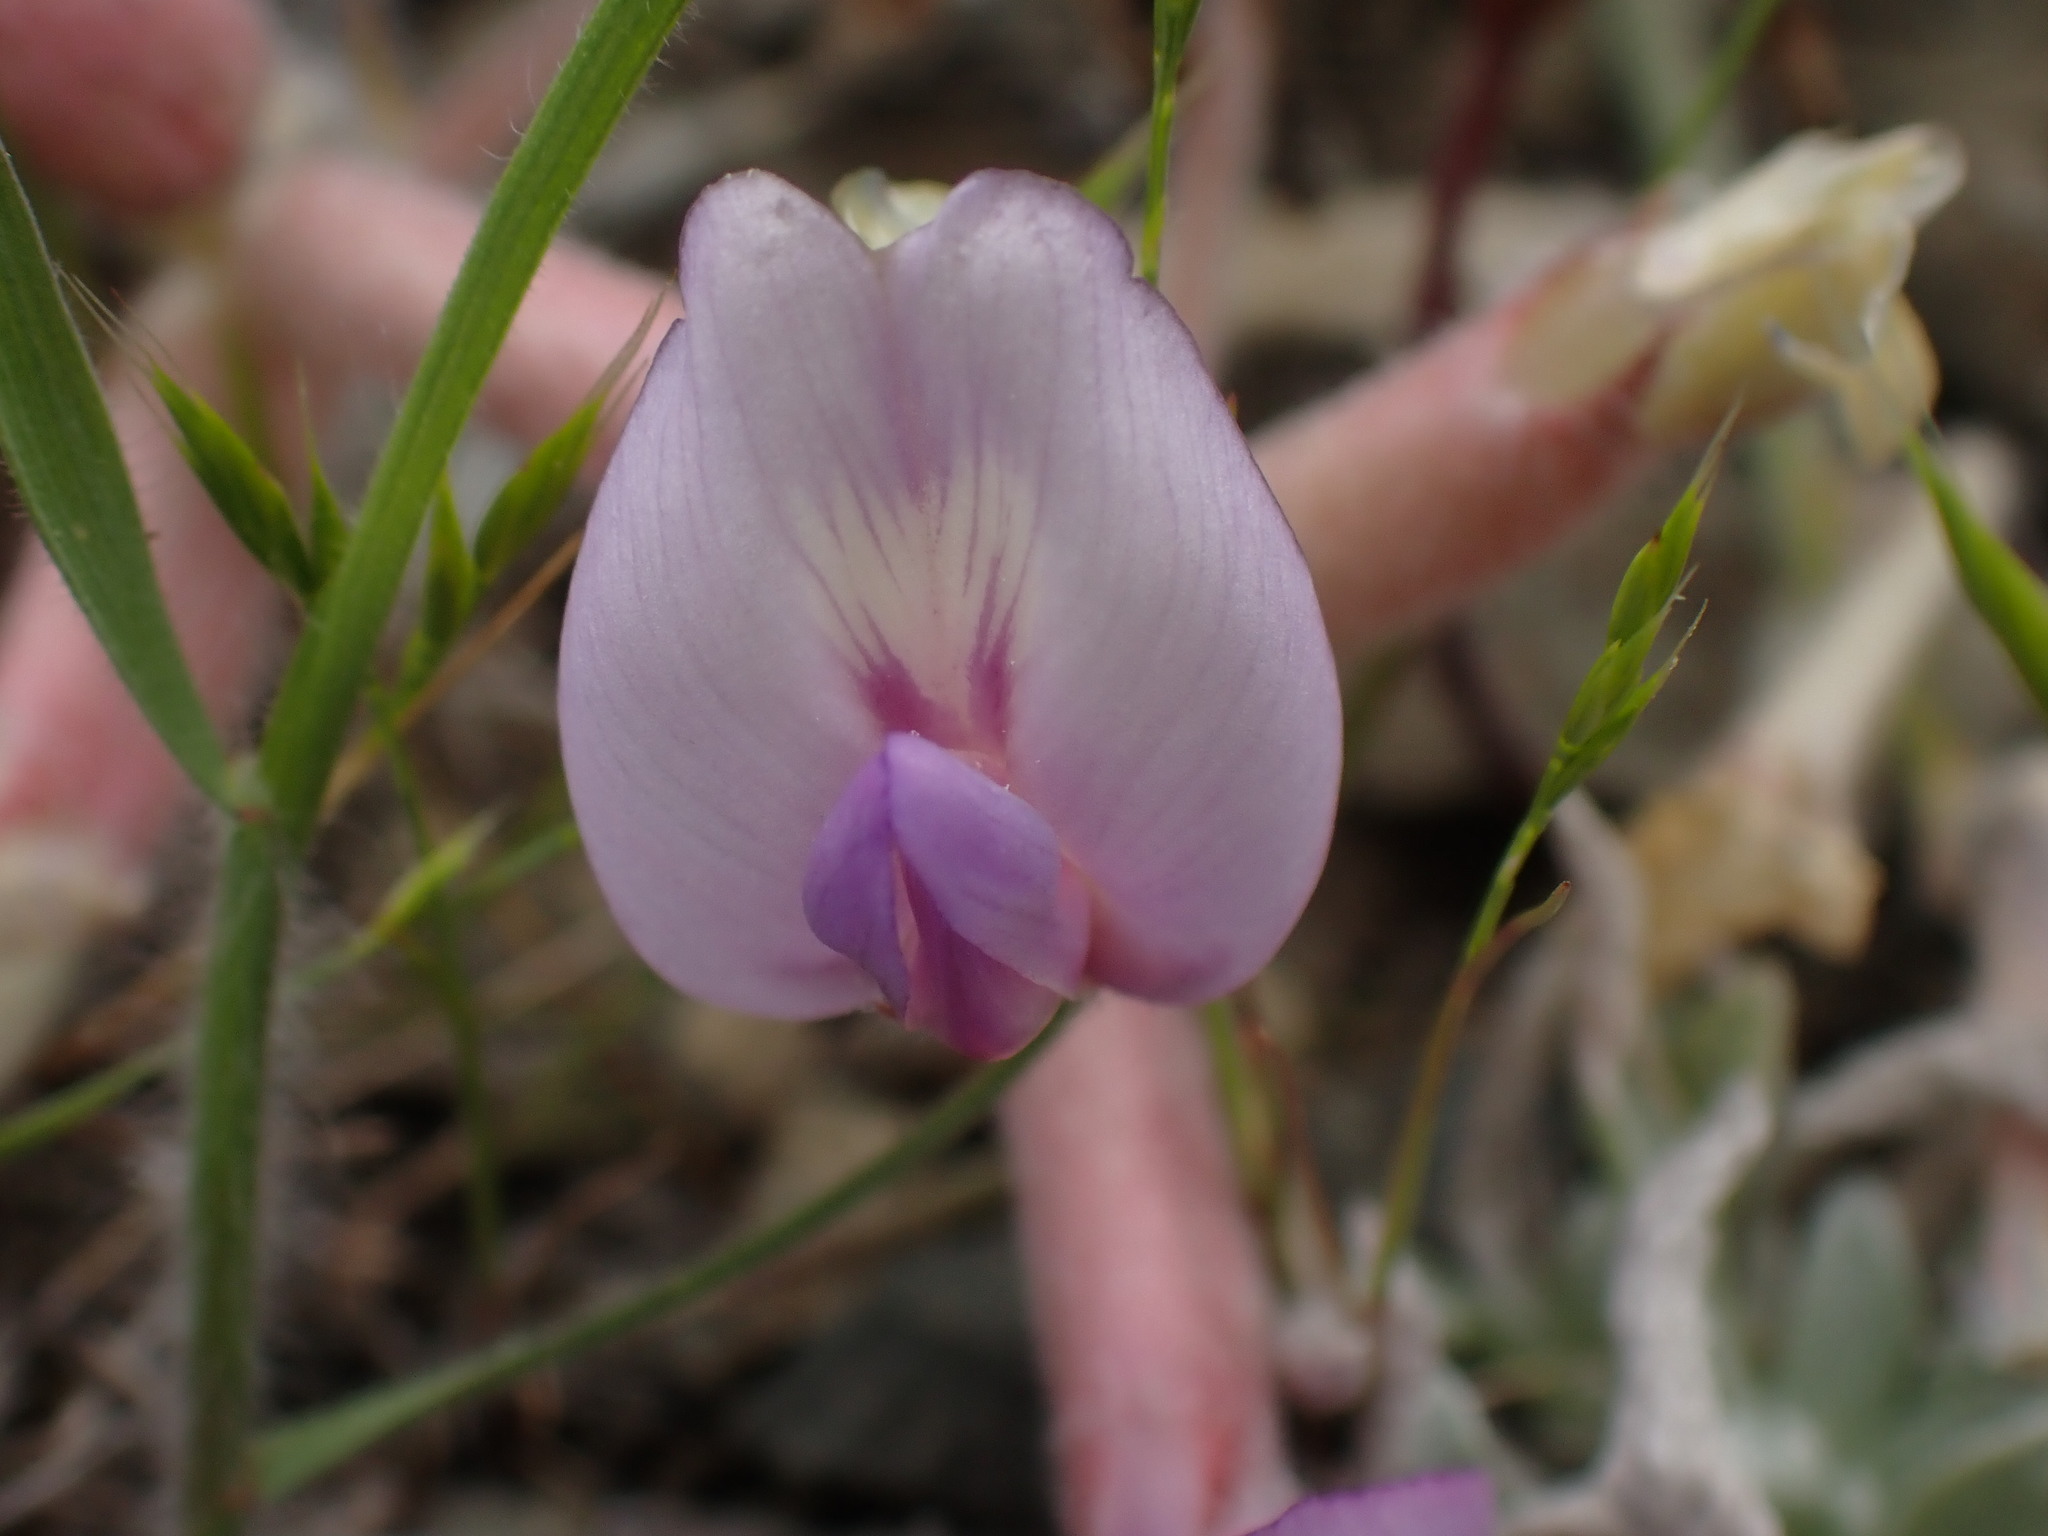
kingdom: Plantae
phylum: Tracheophyta
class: Magnoliopsida
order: Fabales
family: Fabaceae
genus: Astragalus
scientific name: Astragalus purshii
